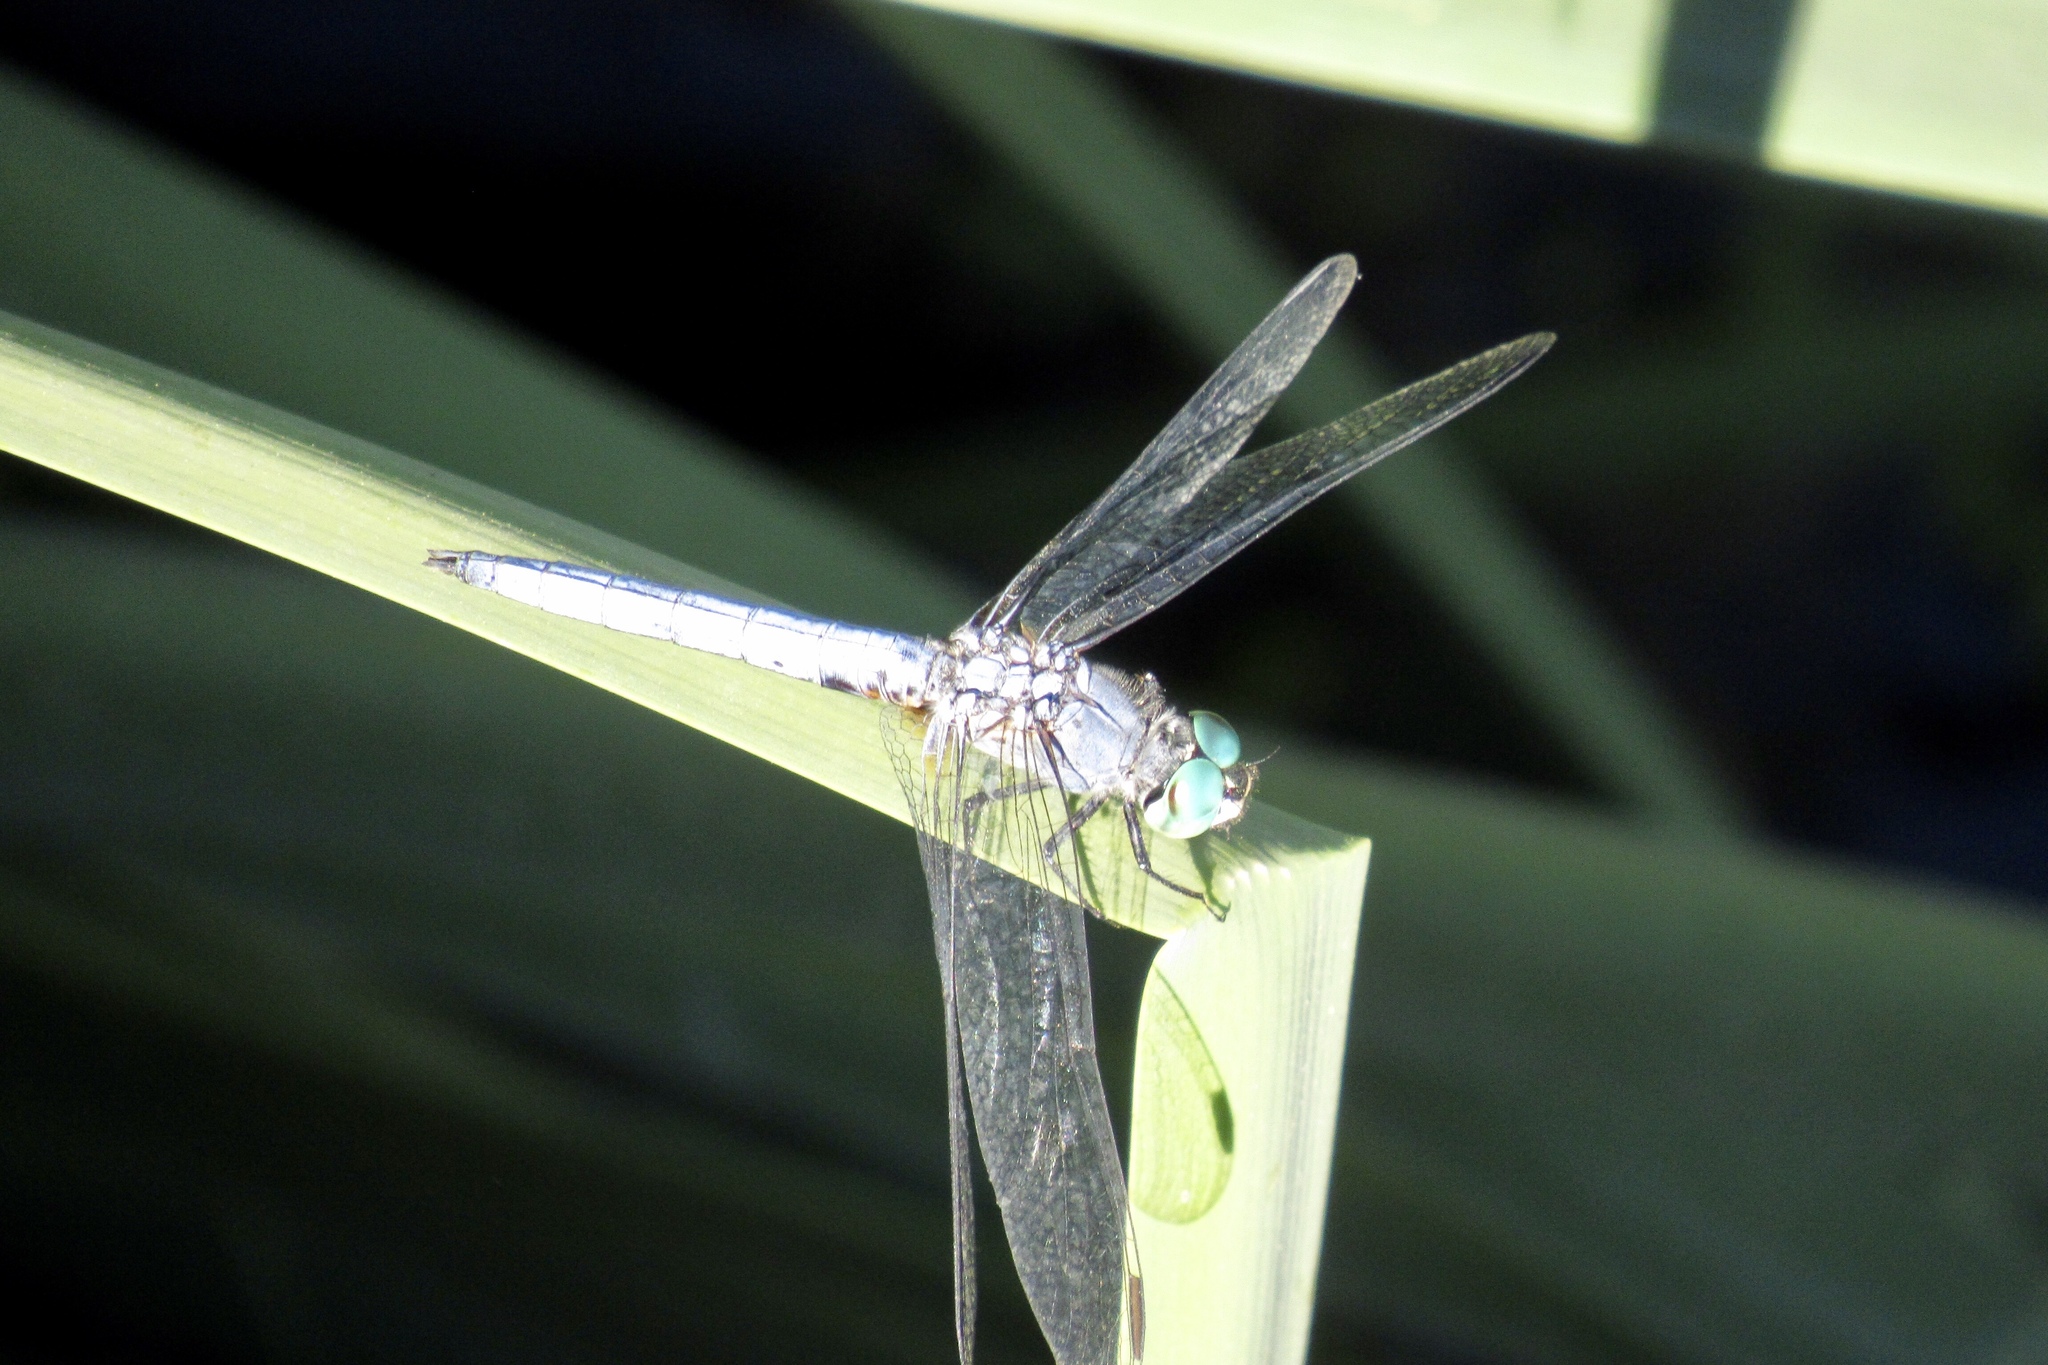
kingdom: Animalia
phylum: Arthropoda
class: Insecta
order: Odonata
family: Libellulidae
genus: Pachydiplax
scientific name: Pachydiplax longipennis
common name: Blue dasher
